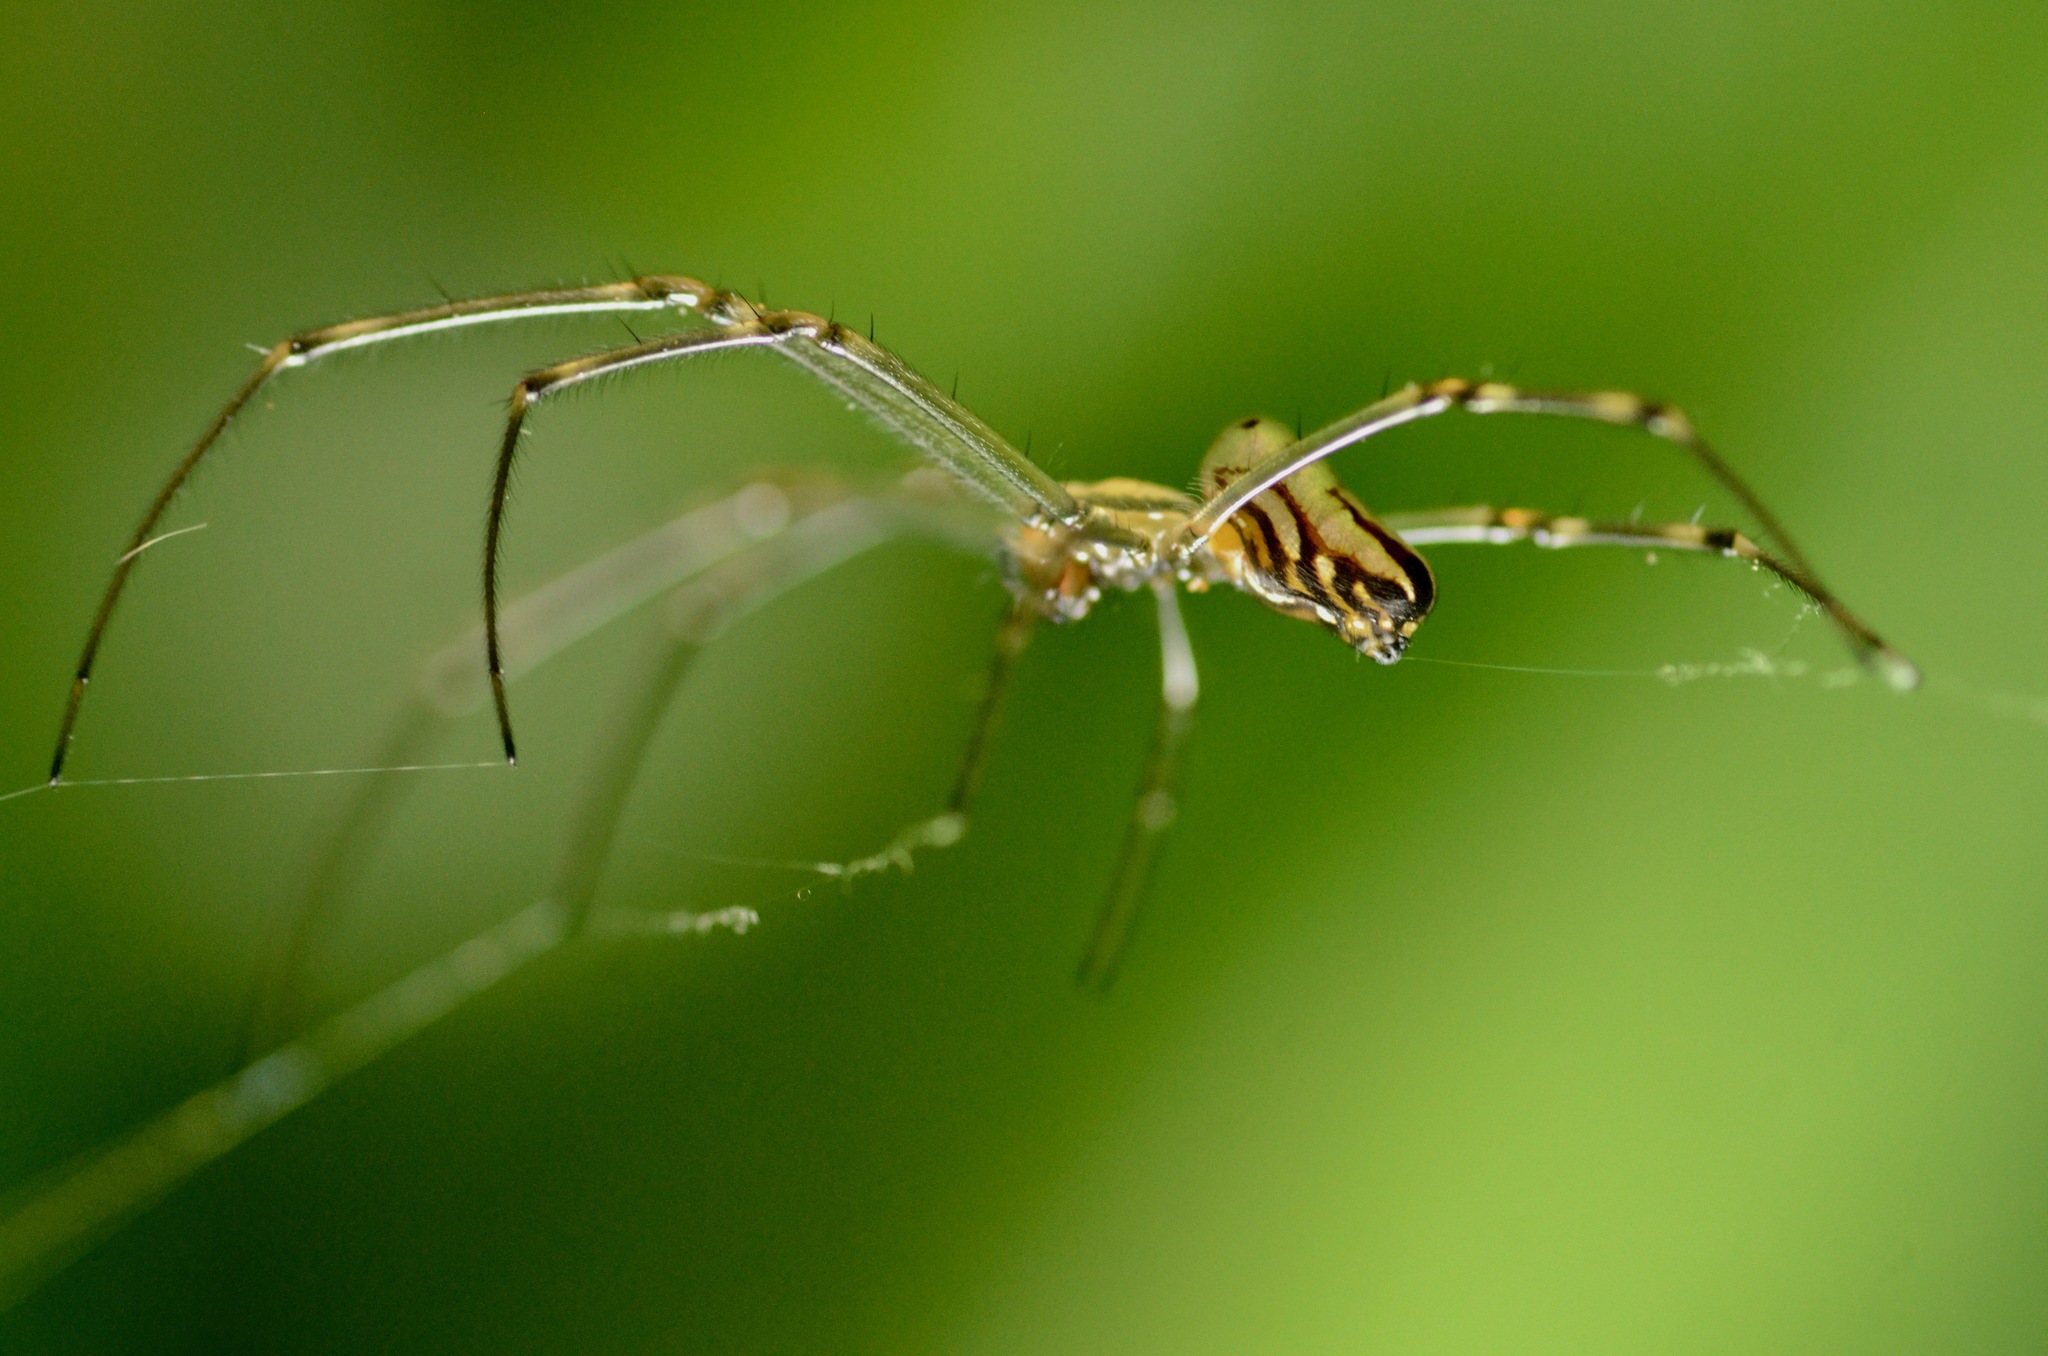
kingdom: Animalia
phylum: Arthropoda
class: Arachnida
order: Araneae
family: Tetragnathidae
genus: Leucauge
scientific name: Leucauge dromedaria
